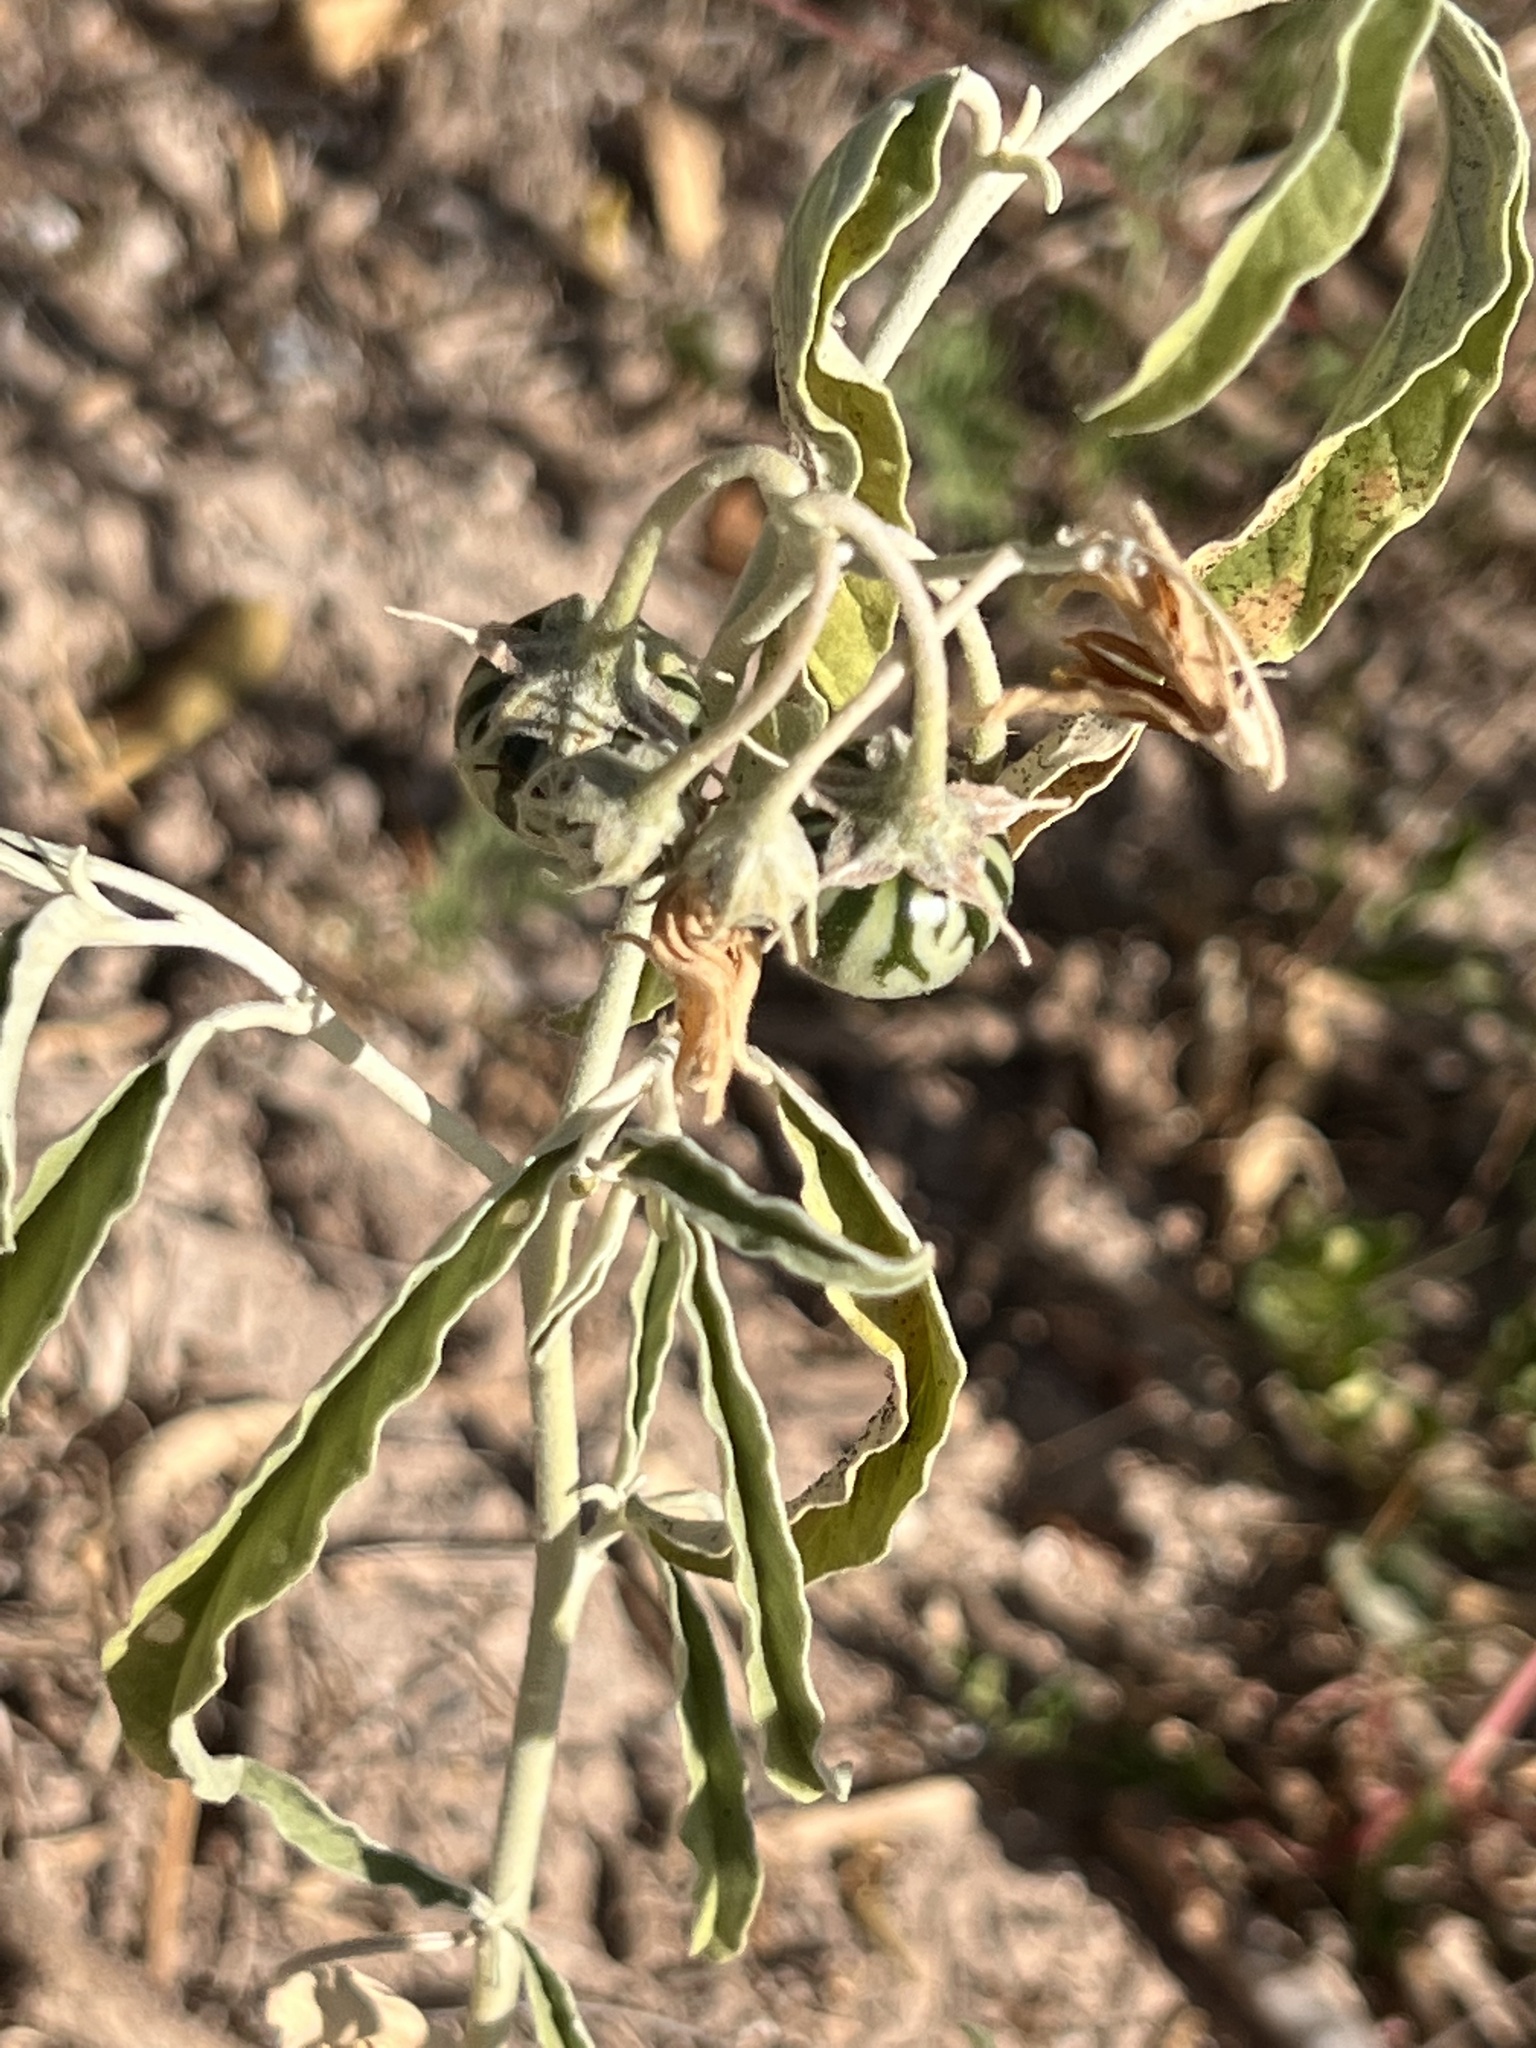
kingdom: Plantae
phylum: Tracheophyta
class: Magnoliopsida
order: Solanales
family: Solanaceae
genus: Solanum
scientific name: Solanum elaeagnifolium
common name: Silverleaf nightshade
